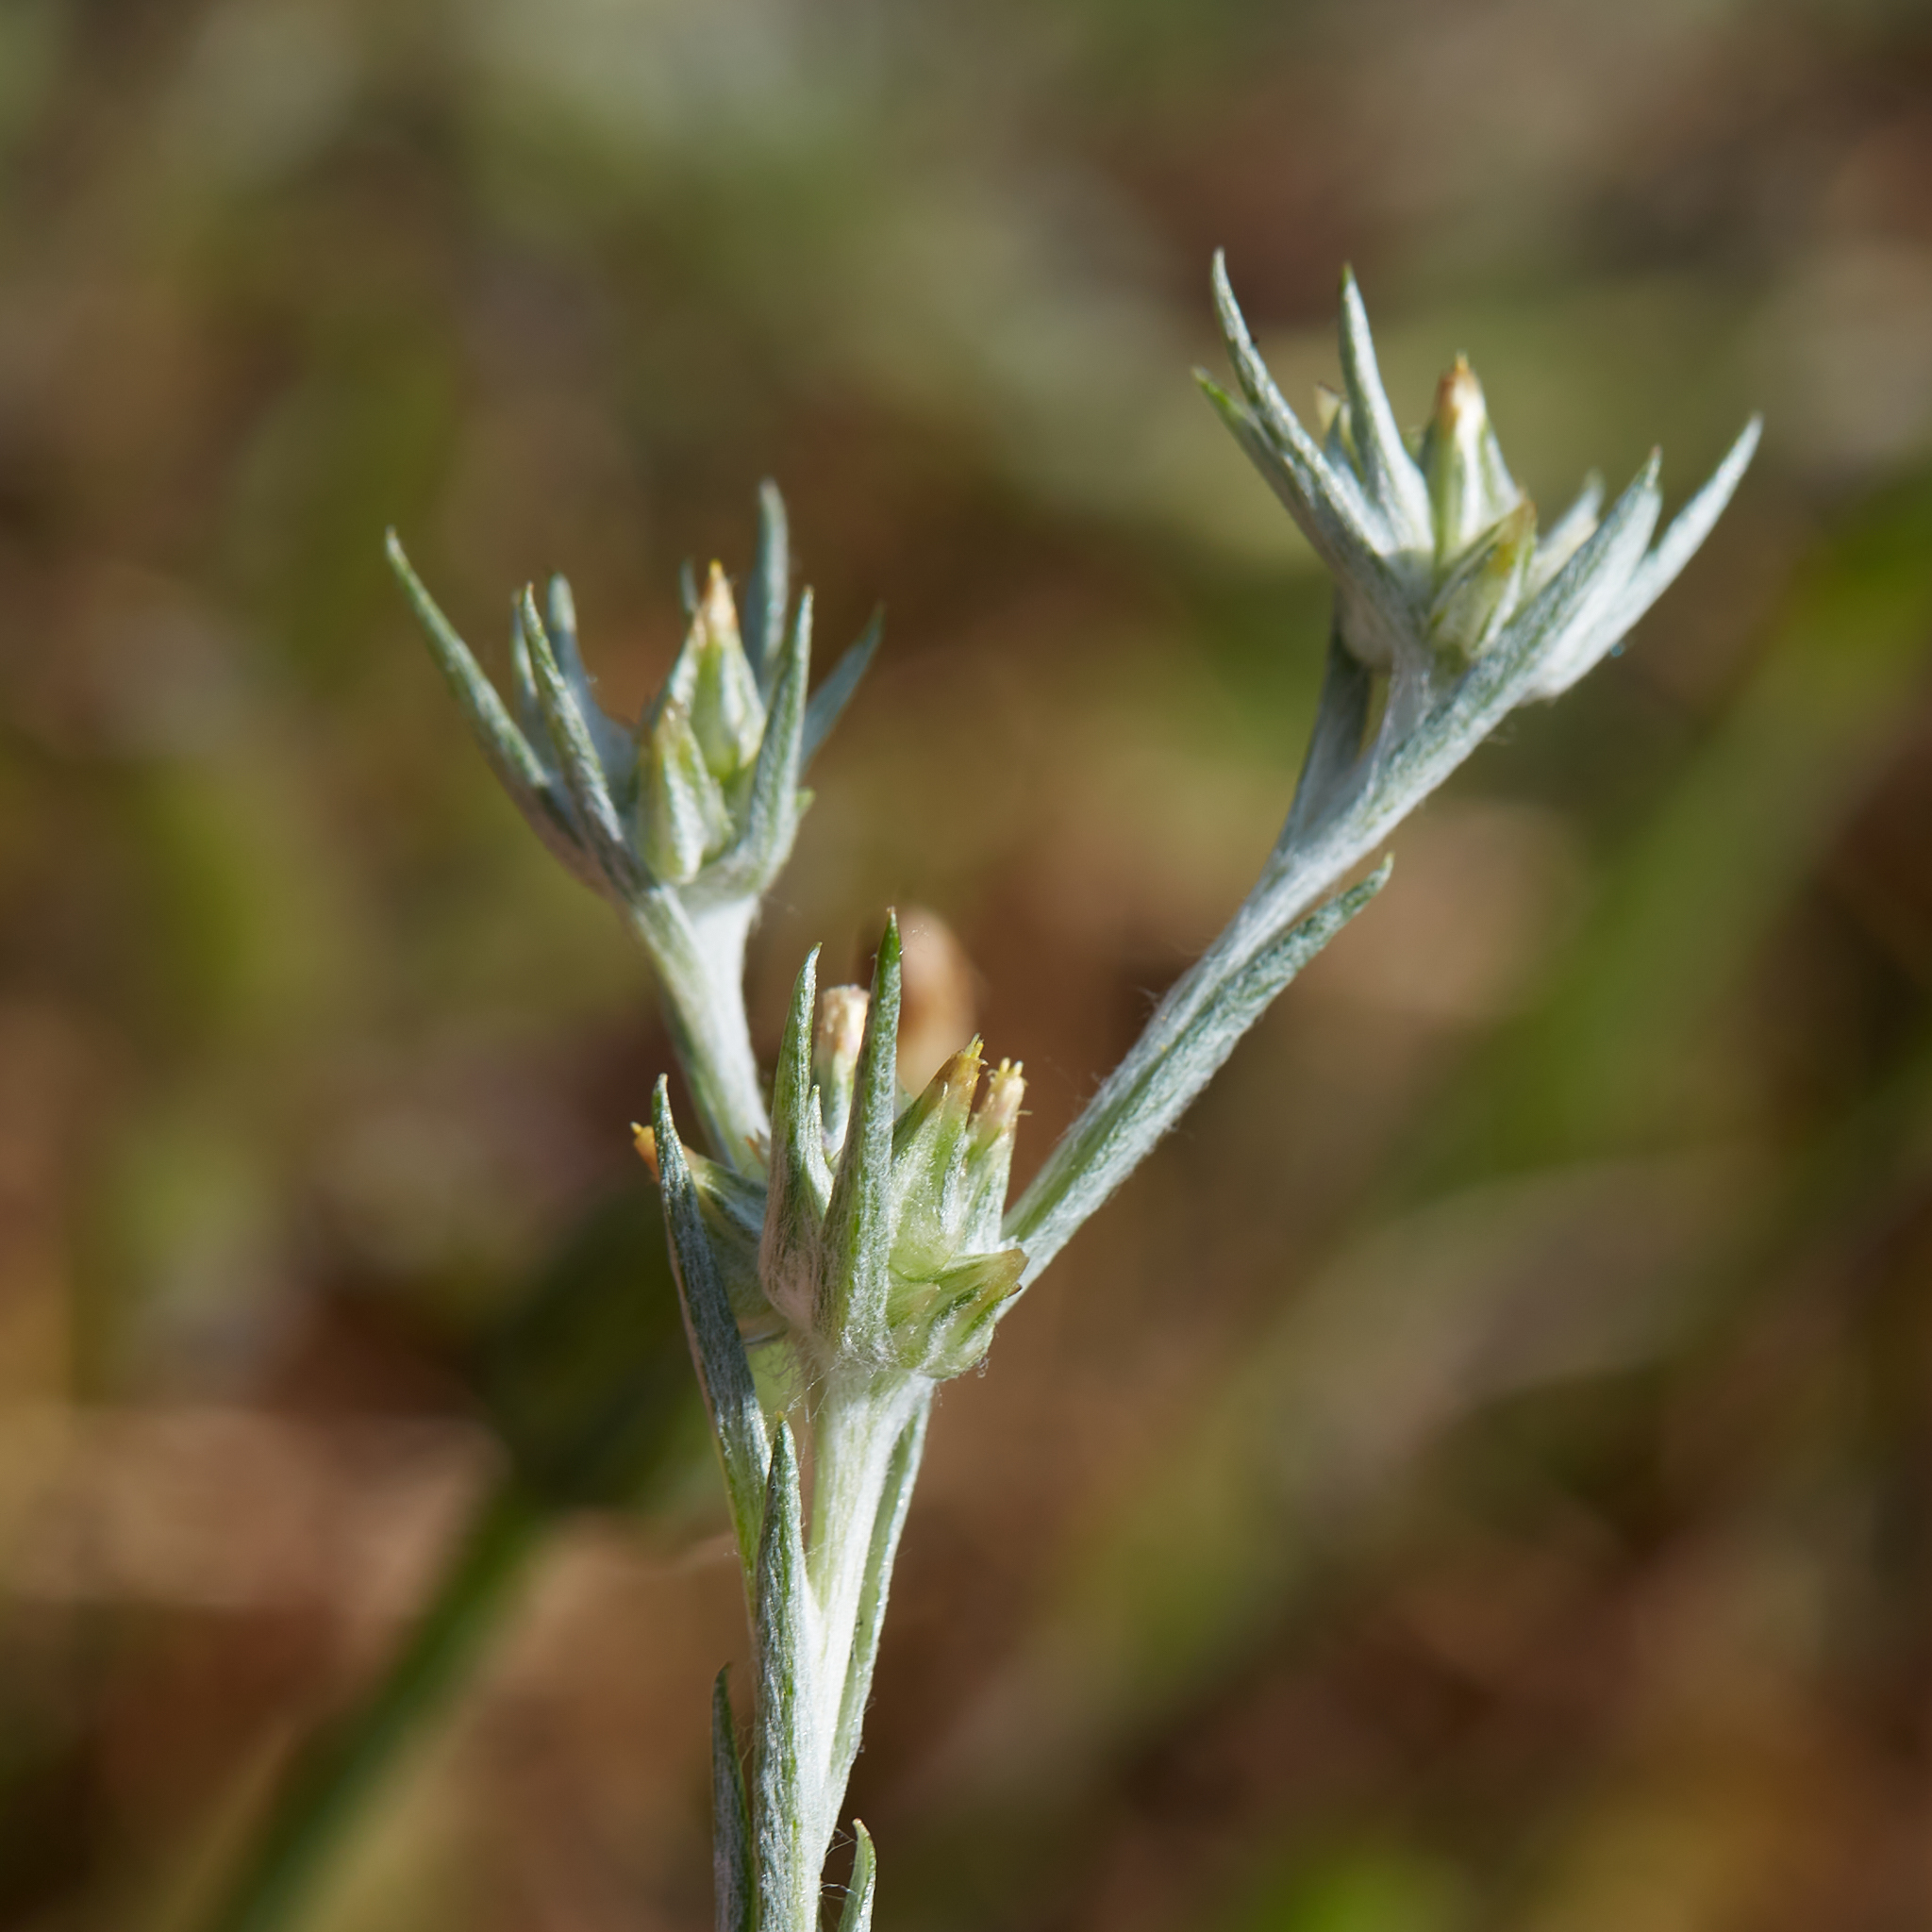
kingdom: Plantae
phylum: Tracheophyta
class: Magnoliopsida
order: Asterales
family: Asteraceae
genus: Logfia
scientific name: Logfia gallica
